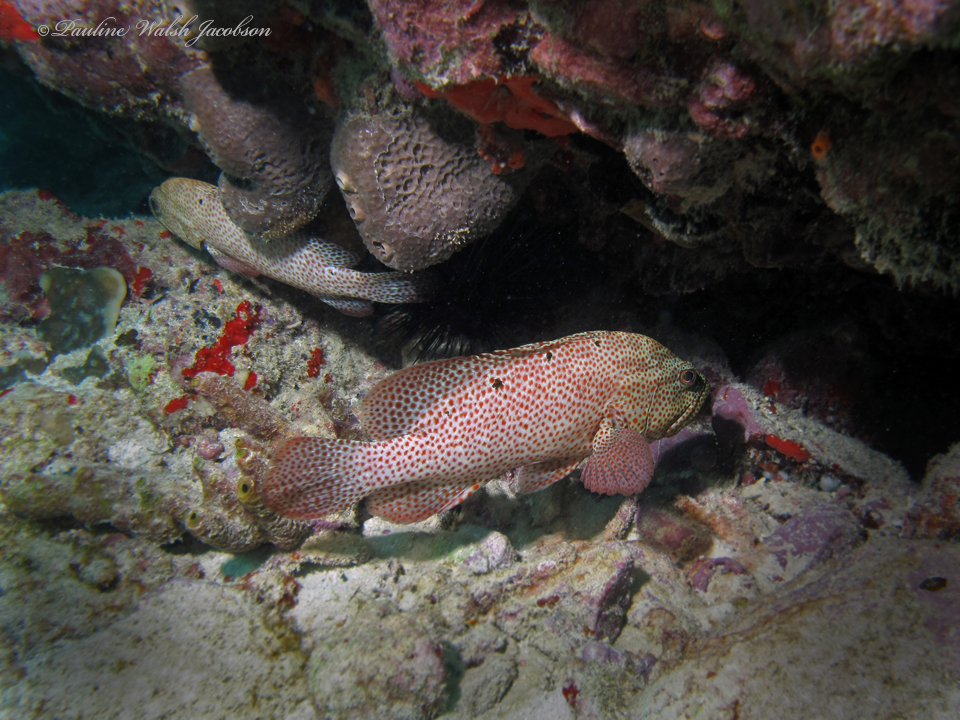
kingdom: Animalia
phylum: Chordata
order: Perciformes
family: Serranidae
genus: Cephalopholis
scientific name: Cephalopholis cruentata
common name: Graysby
